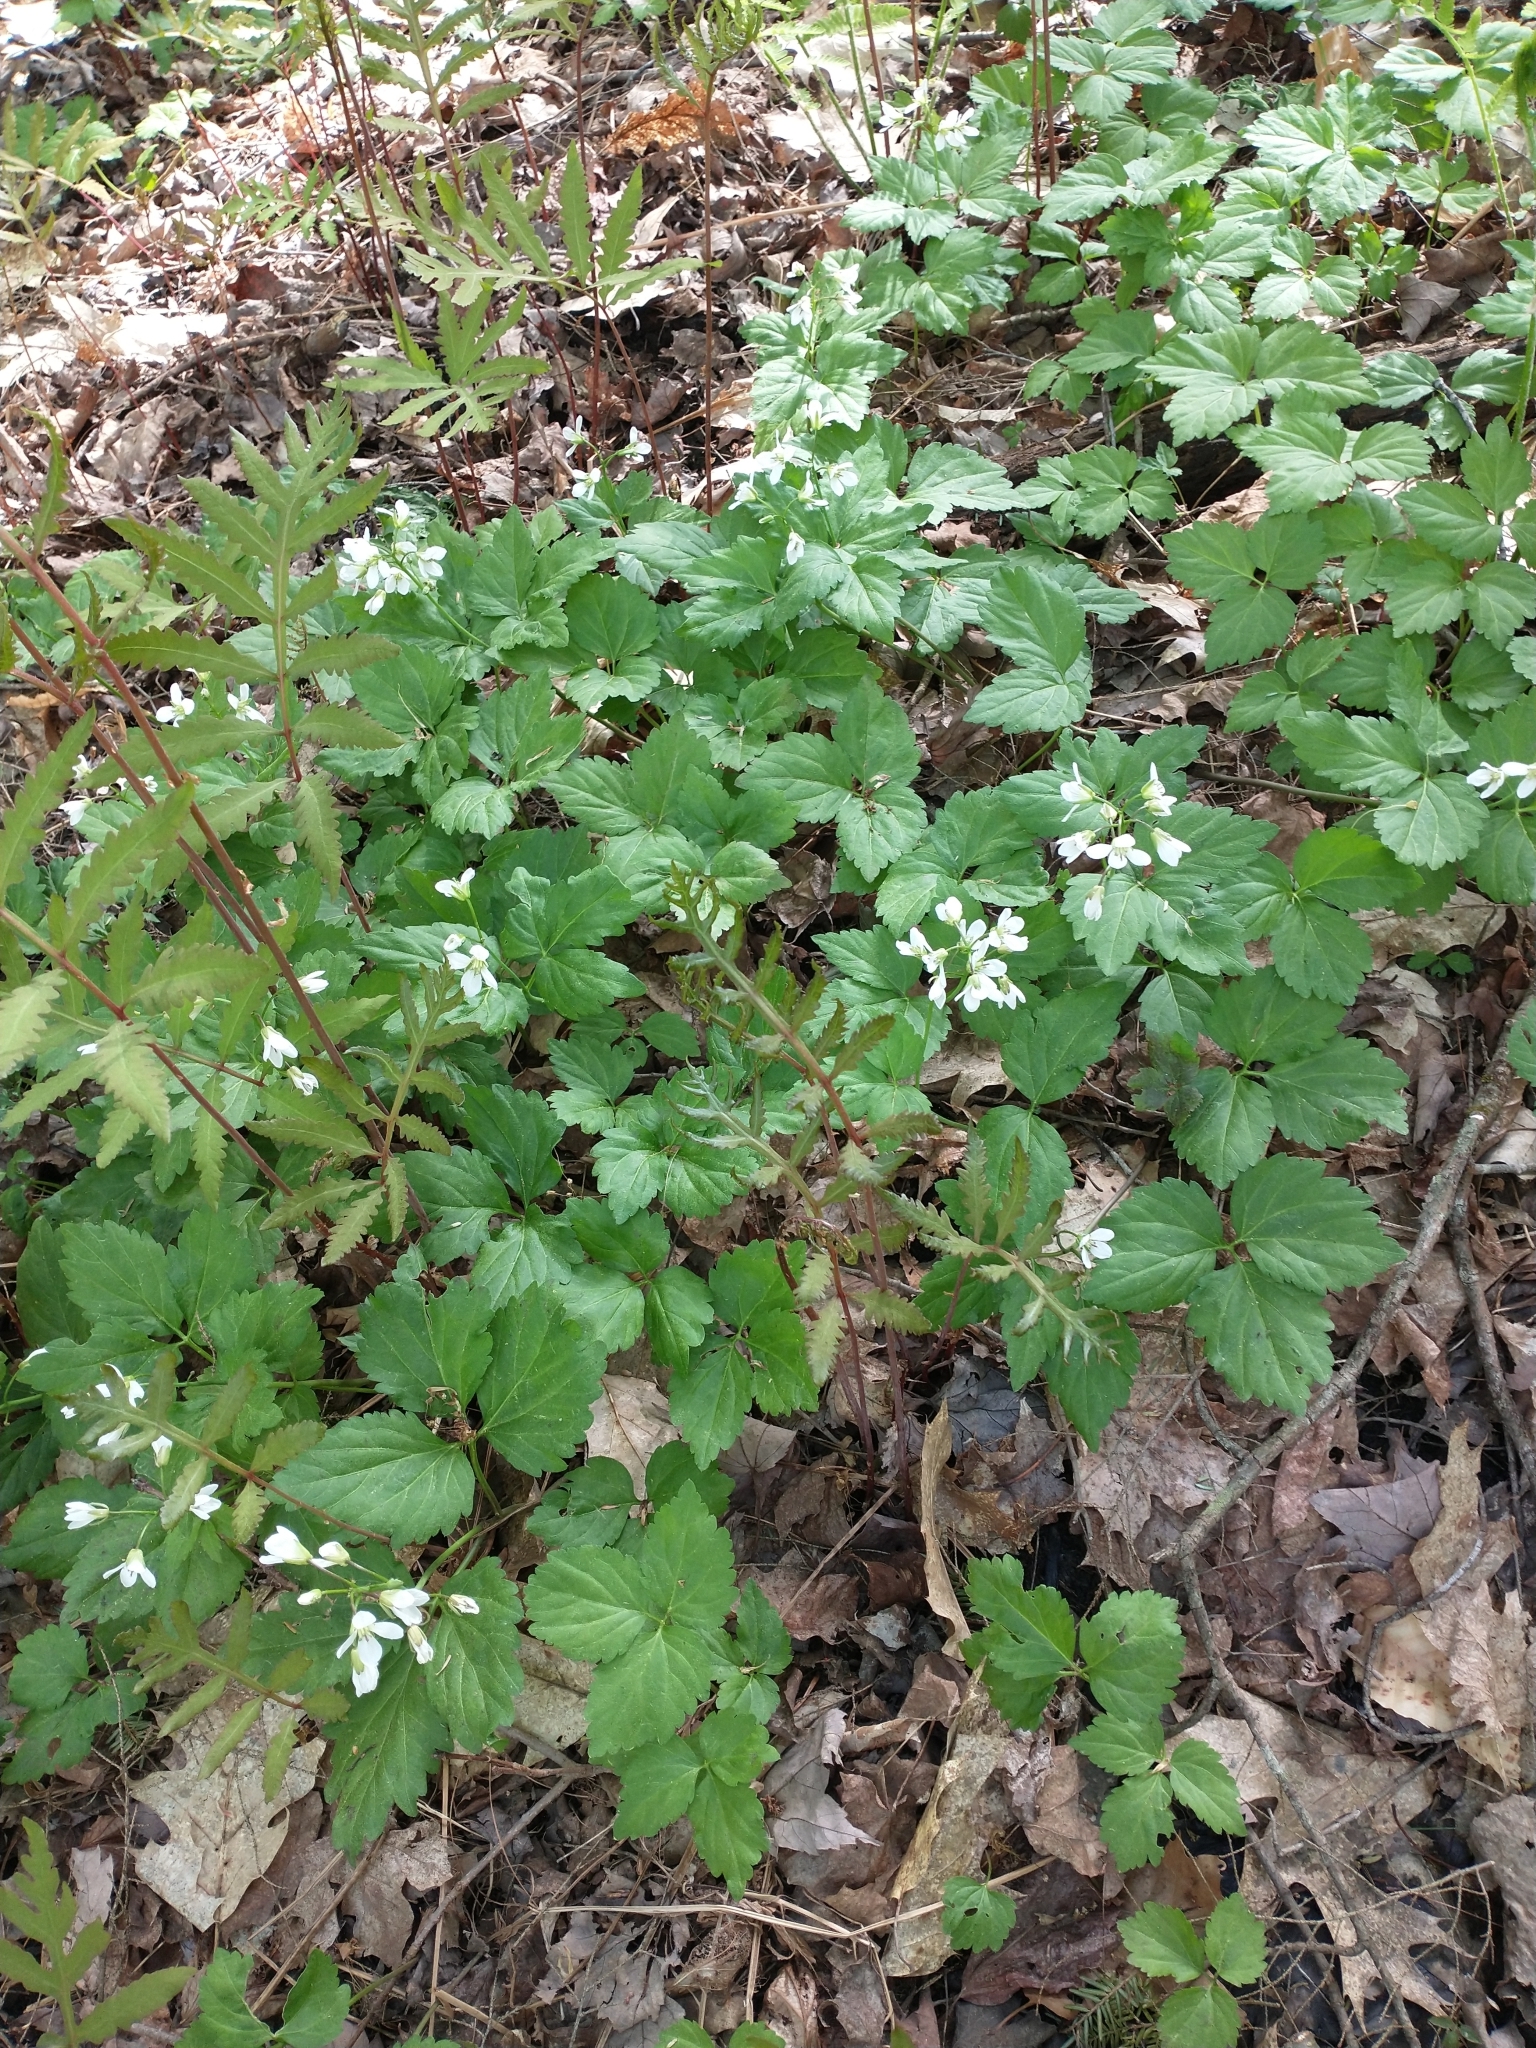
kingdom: Plantae
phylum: Tracheophyta
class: Magnoliopsida
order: Brassicales
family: Brassicaceae
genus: Cardamine
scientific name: Cardamine diphylla
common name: Broad-leaved toothwort
